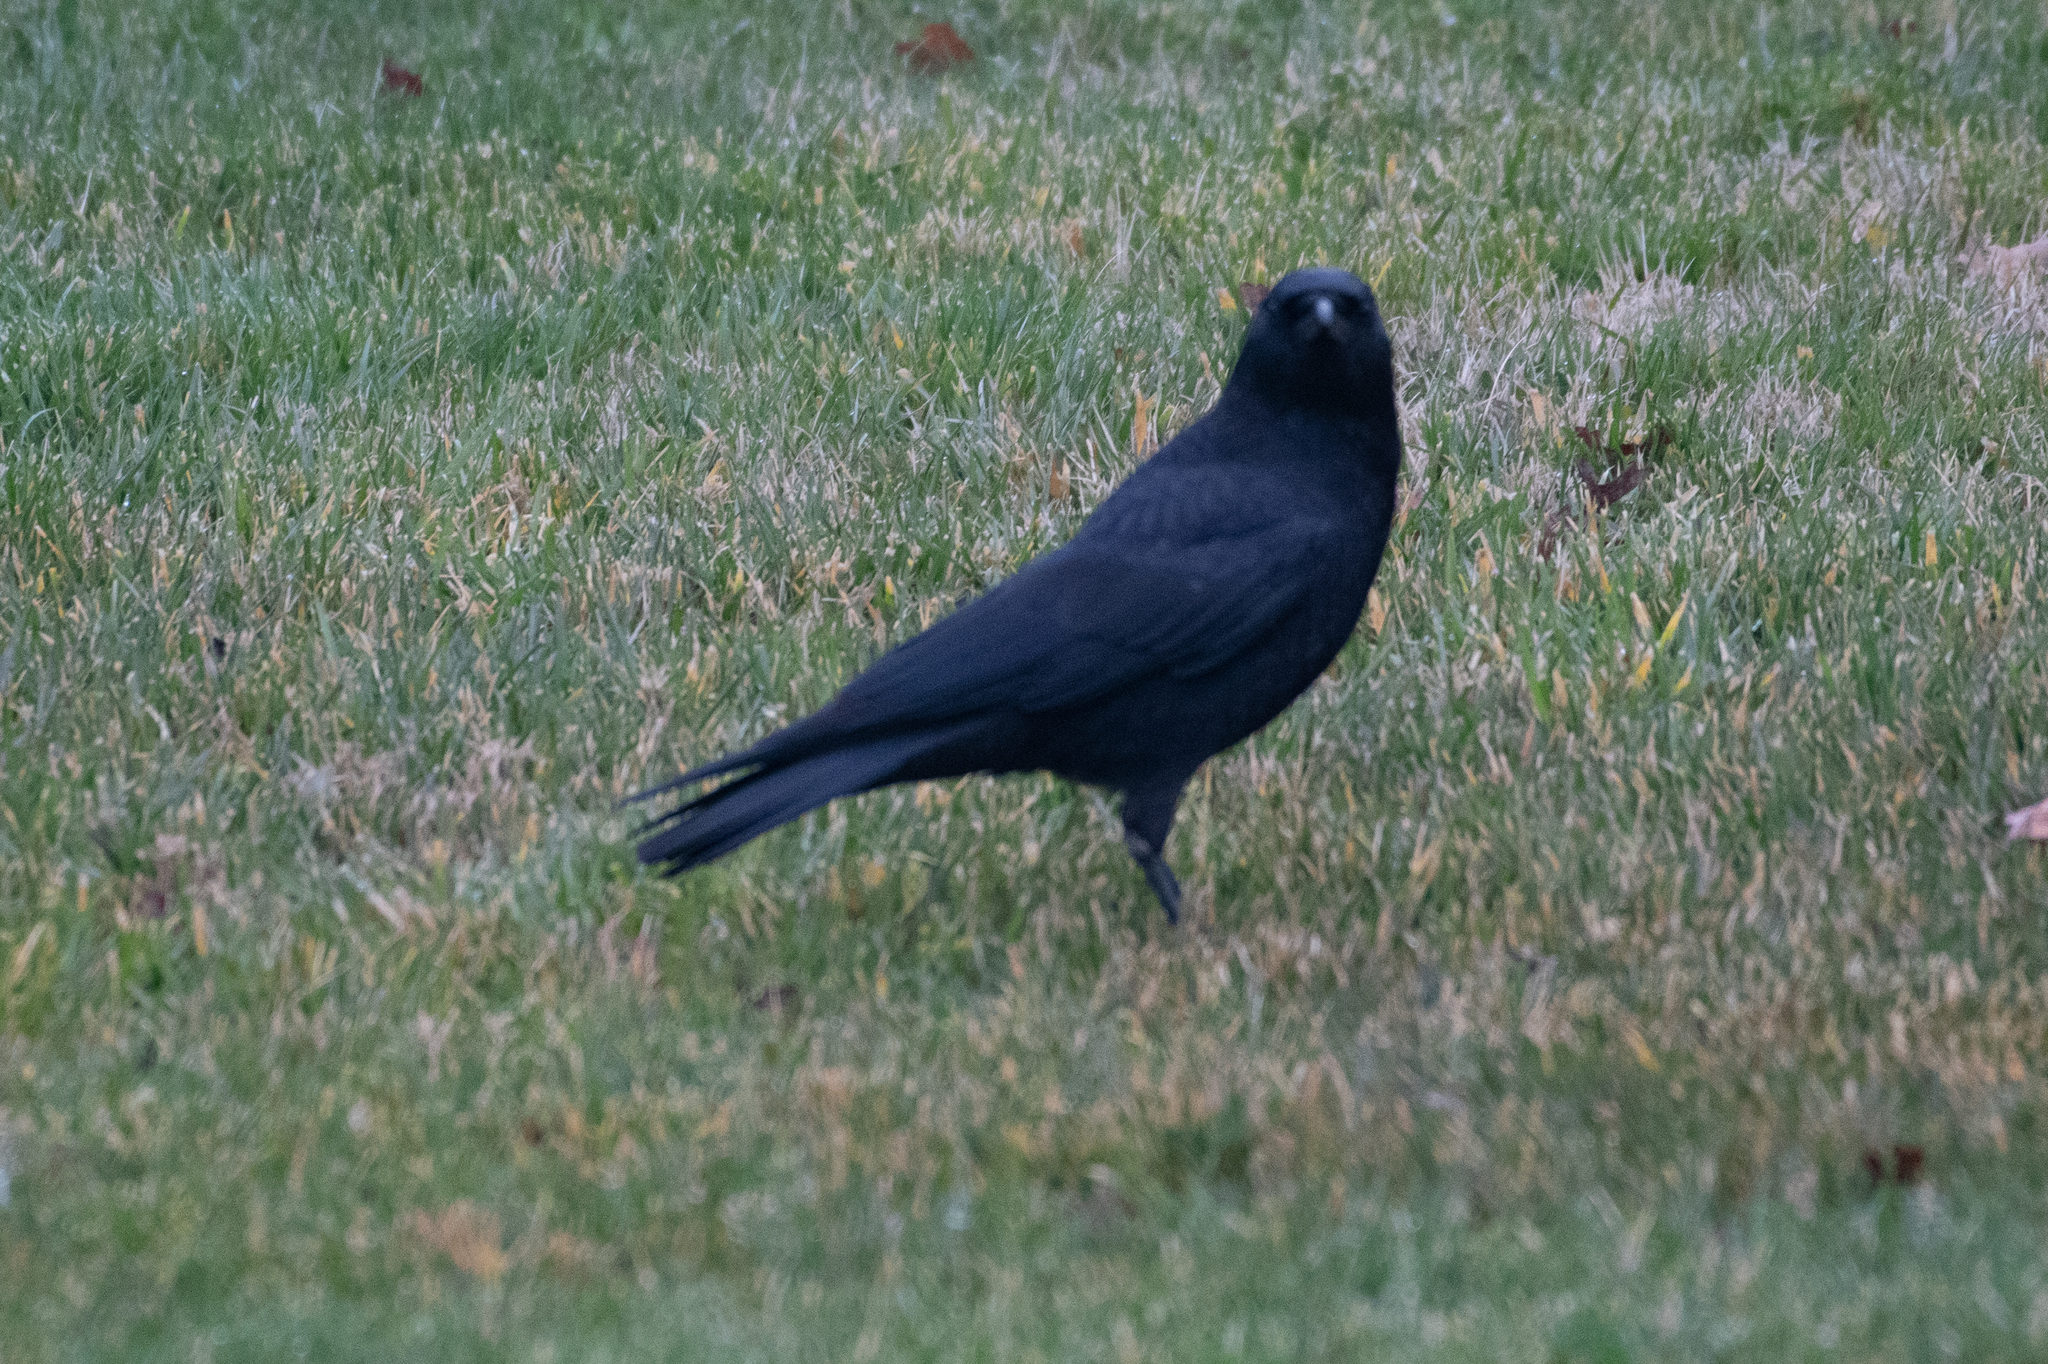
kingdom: Animalia
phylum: Chordata
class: Aves
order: Passeriformes
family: Corvidae
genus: Corvus
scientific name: Corvus brachyrhynchos
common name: American crow
